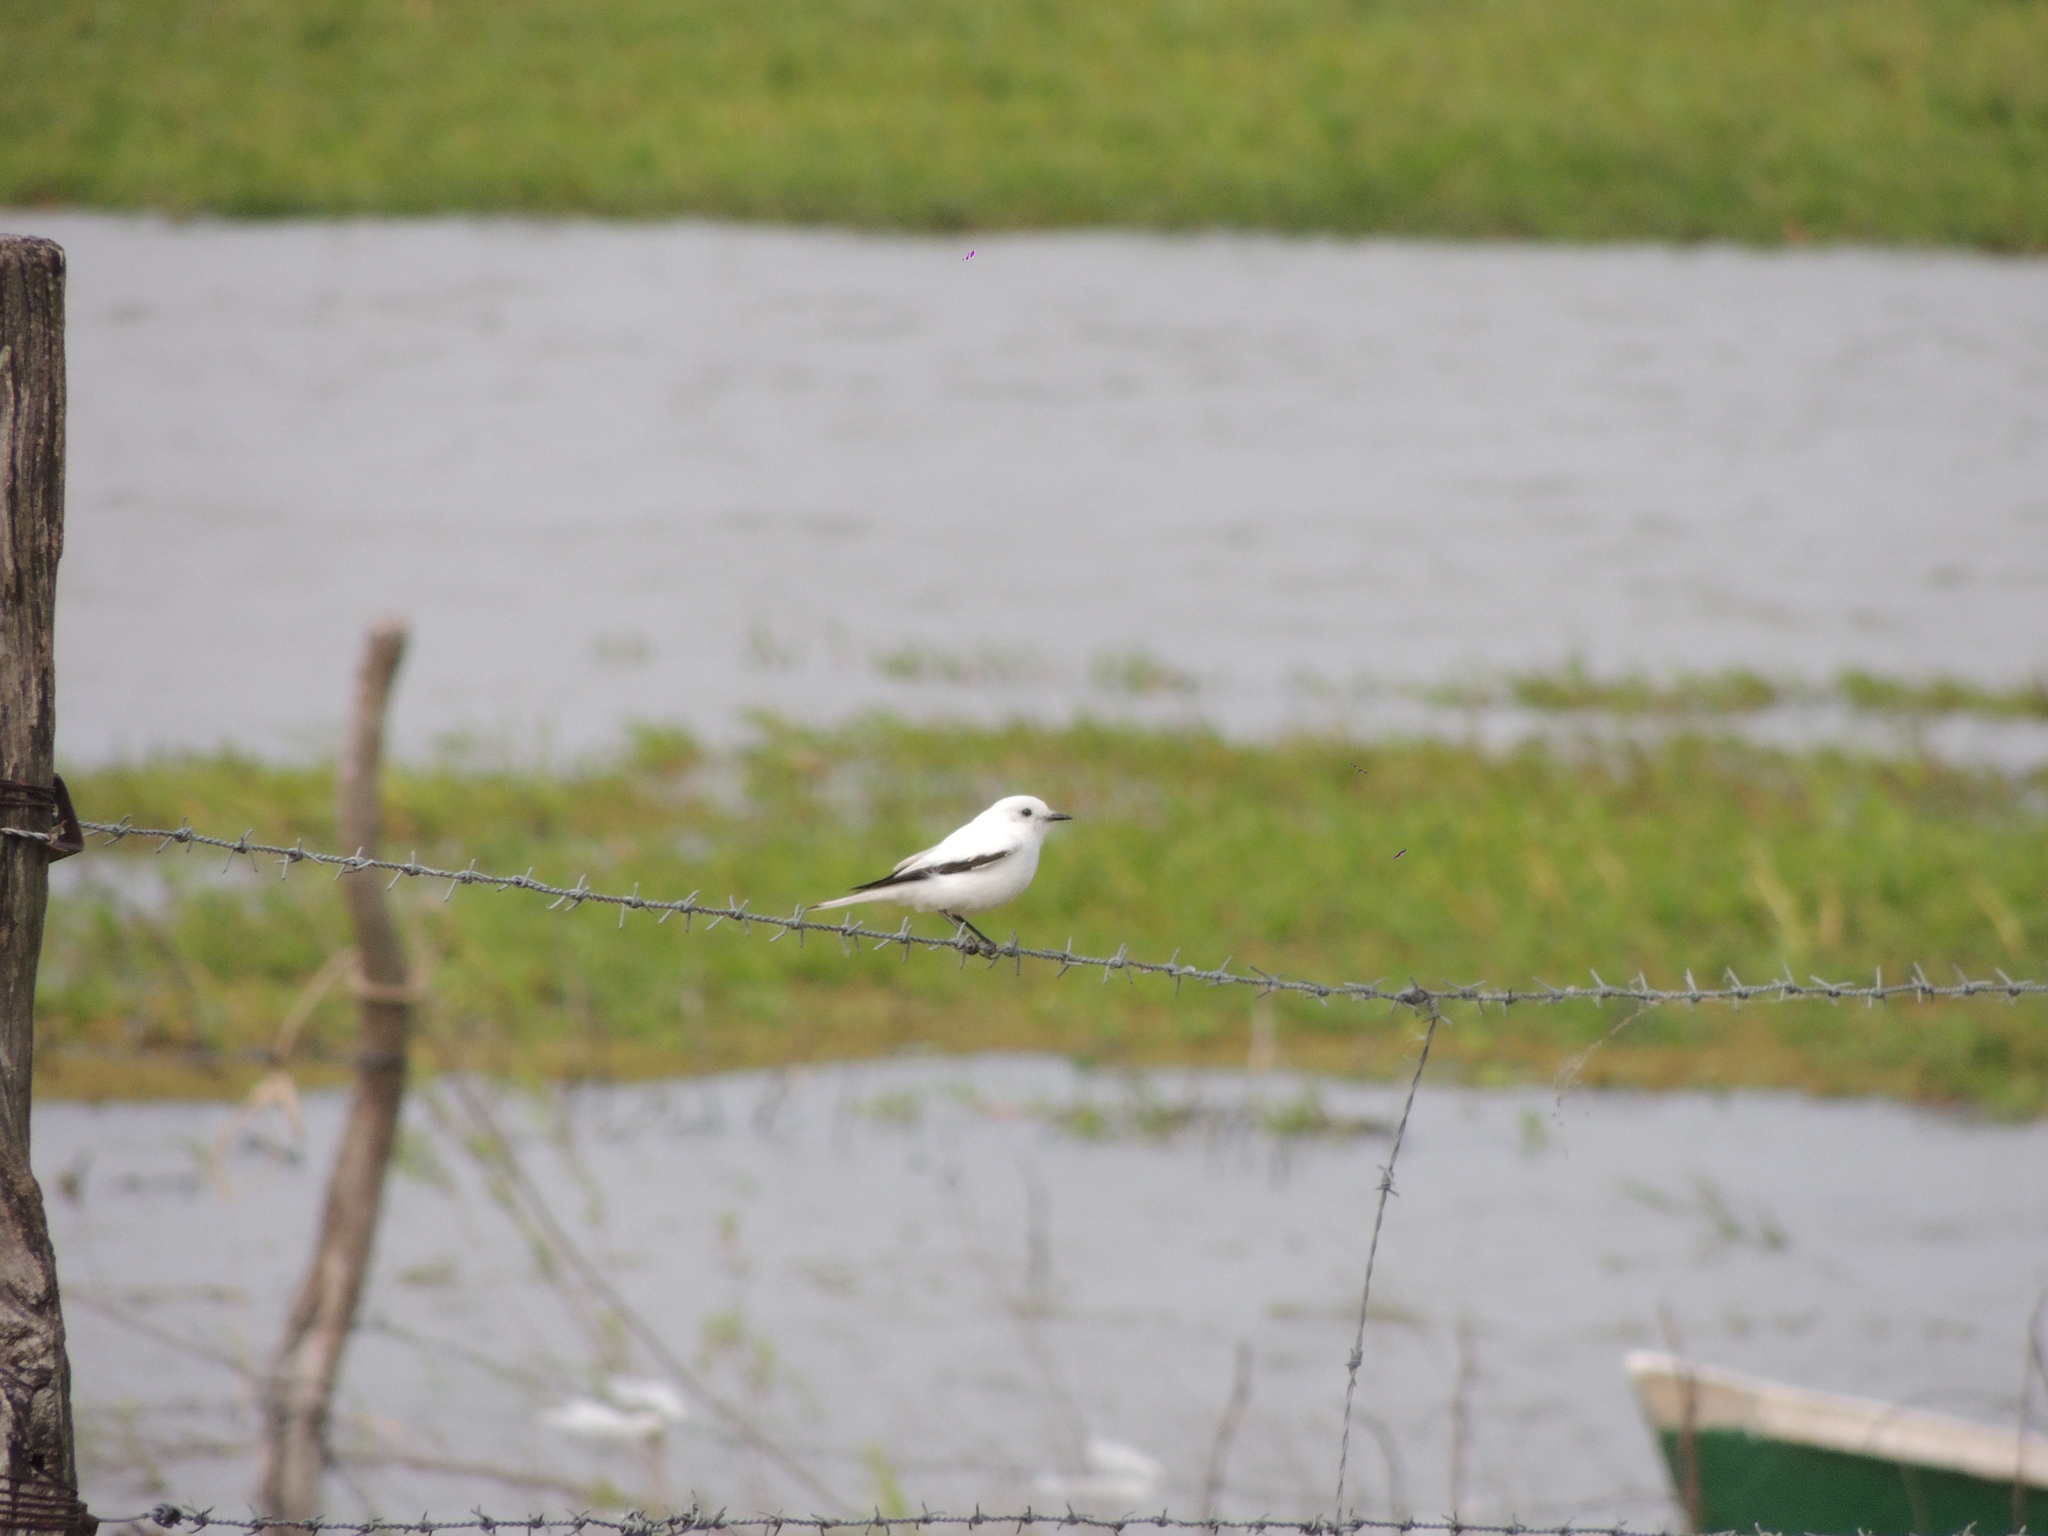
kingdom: Animalia
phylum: Chordata
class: Aves
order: Passeriformes
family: Tyrannidae
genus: Xolmis
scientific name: Xolmis irupero
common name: White monjita
